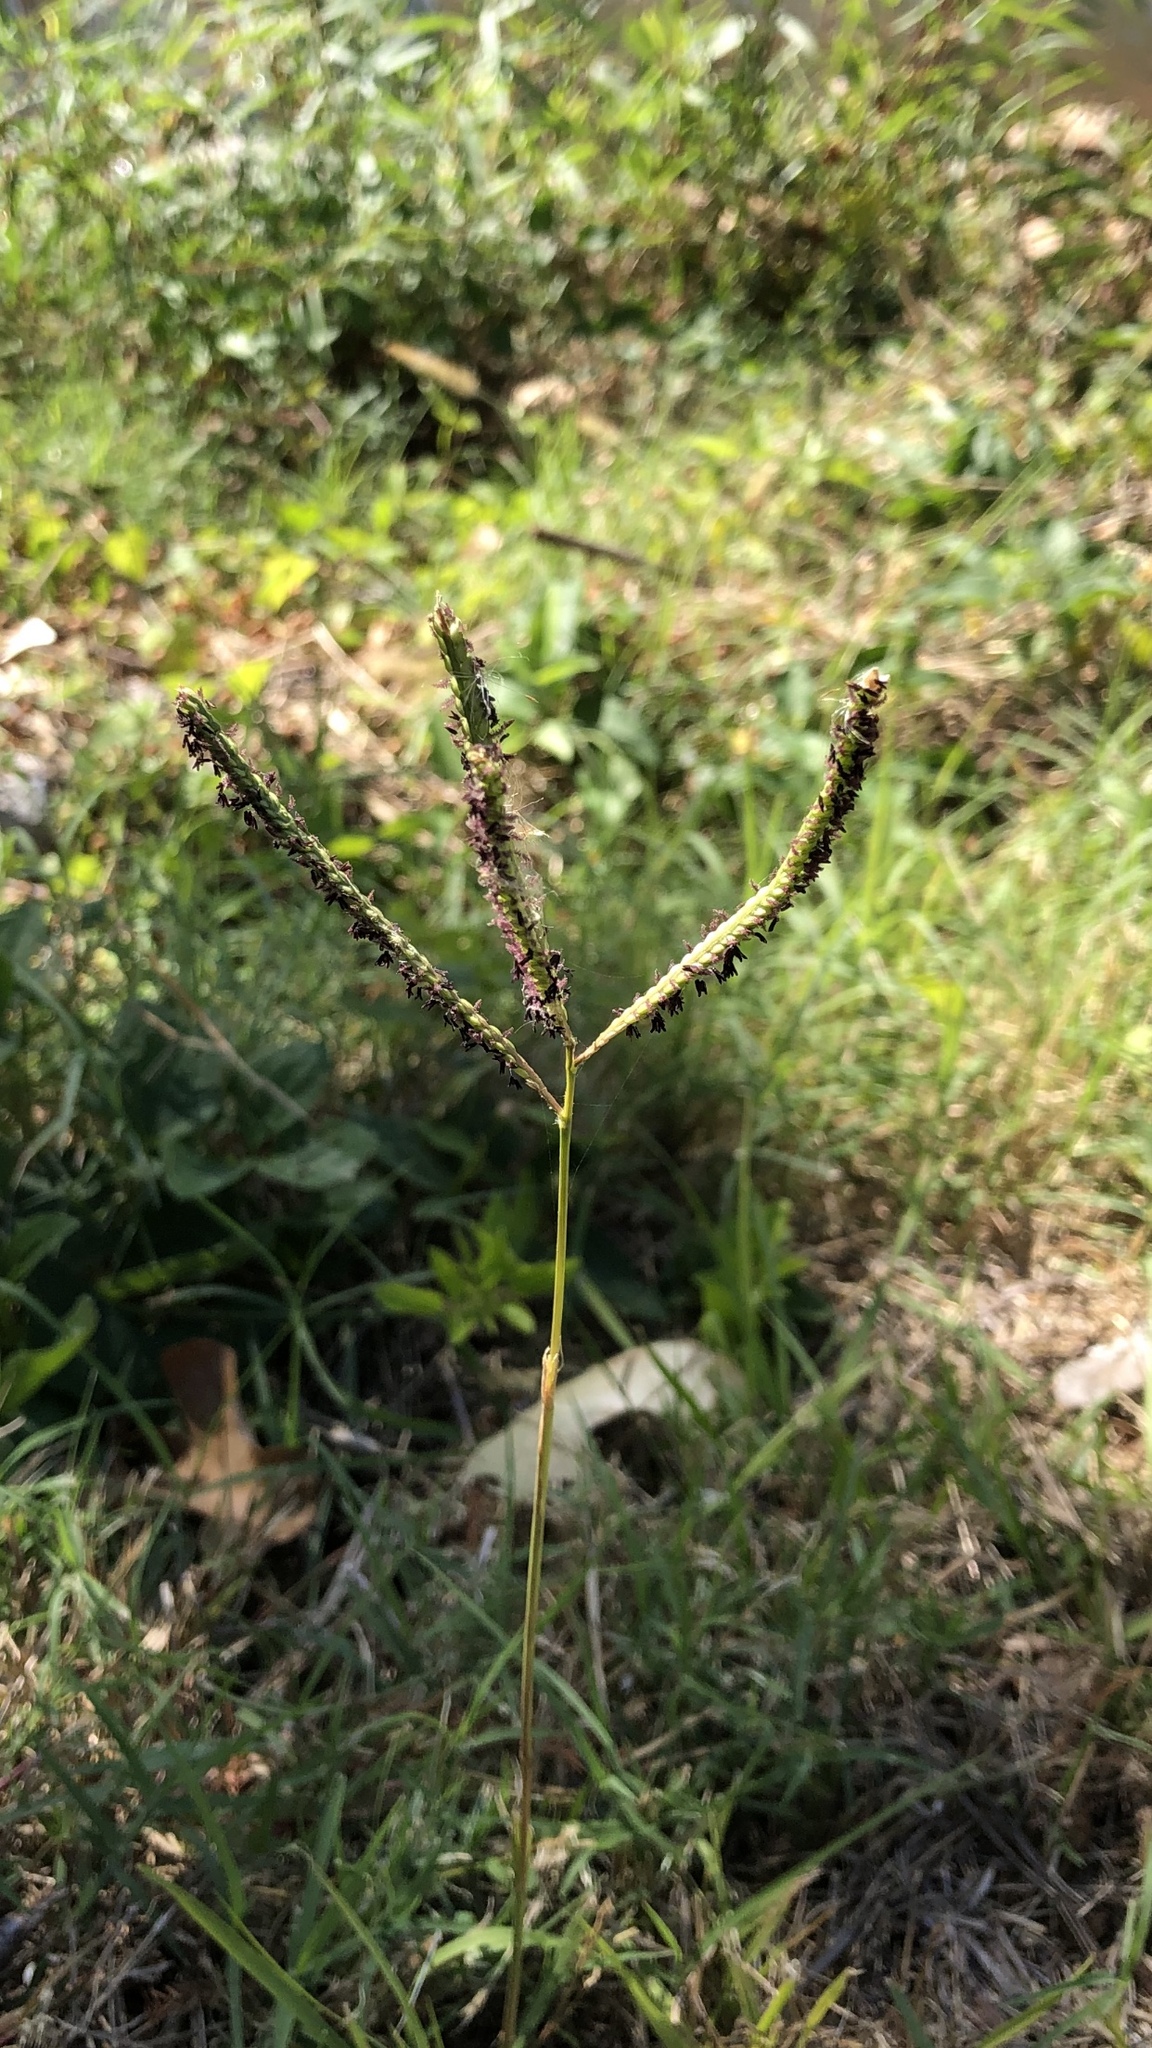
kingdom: Plantae
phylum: Tracheophyta
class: Liliopsida
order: Poales
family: Poaceae
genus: Paspalum
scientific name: Paspalum dilatatum
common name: Dallisgrass
